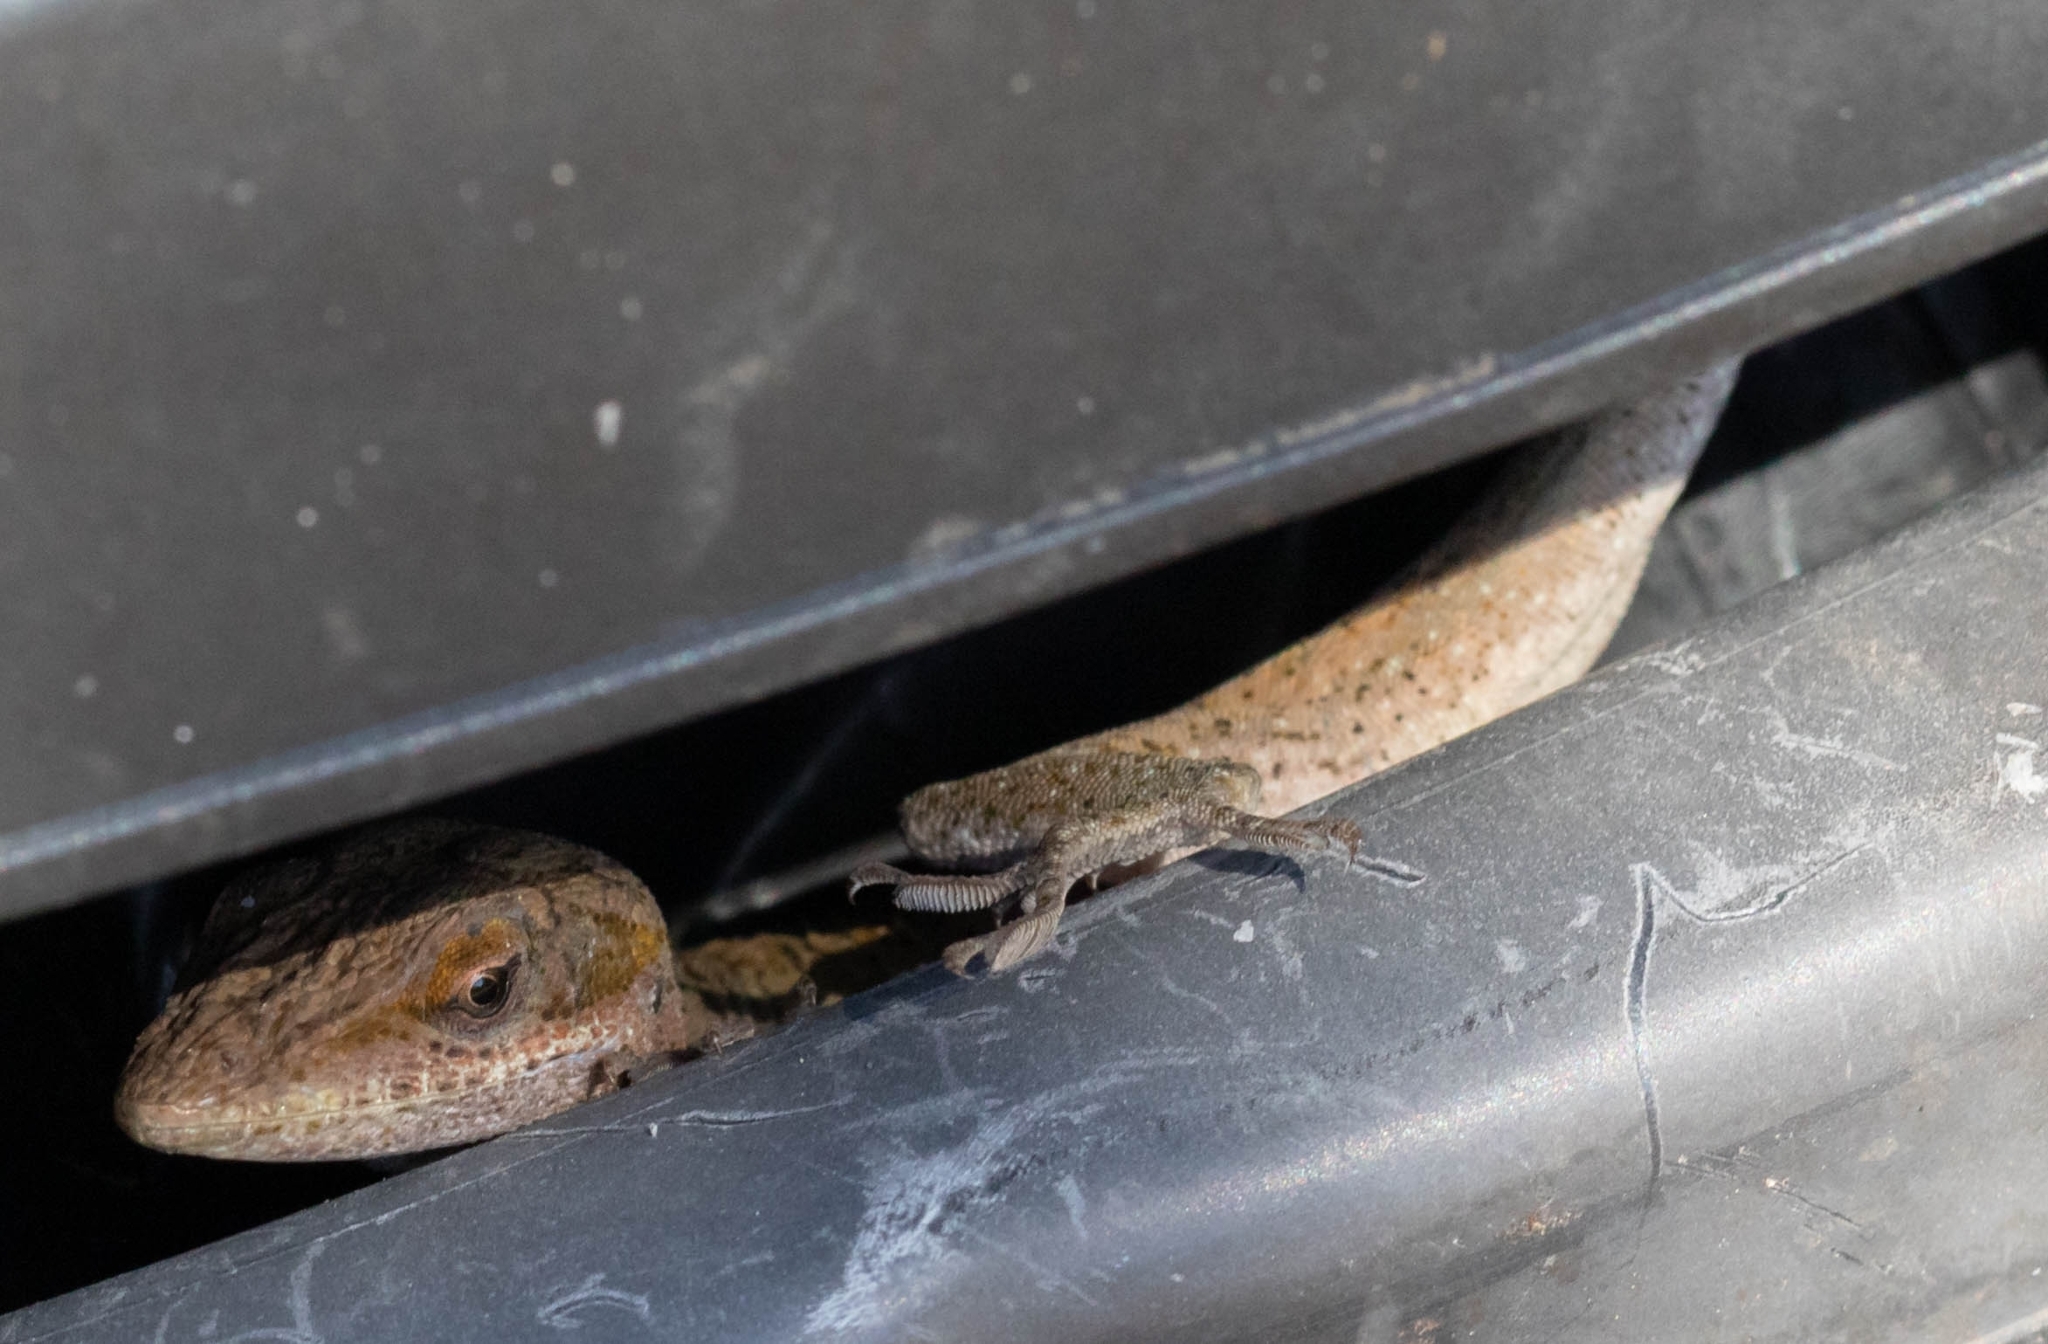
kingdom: Animalia
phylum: Chordata
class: Squamata
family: Dactyloidae
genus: Anolis
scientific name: Anolis carolinensis
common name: Green anole
